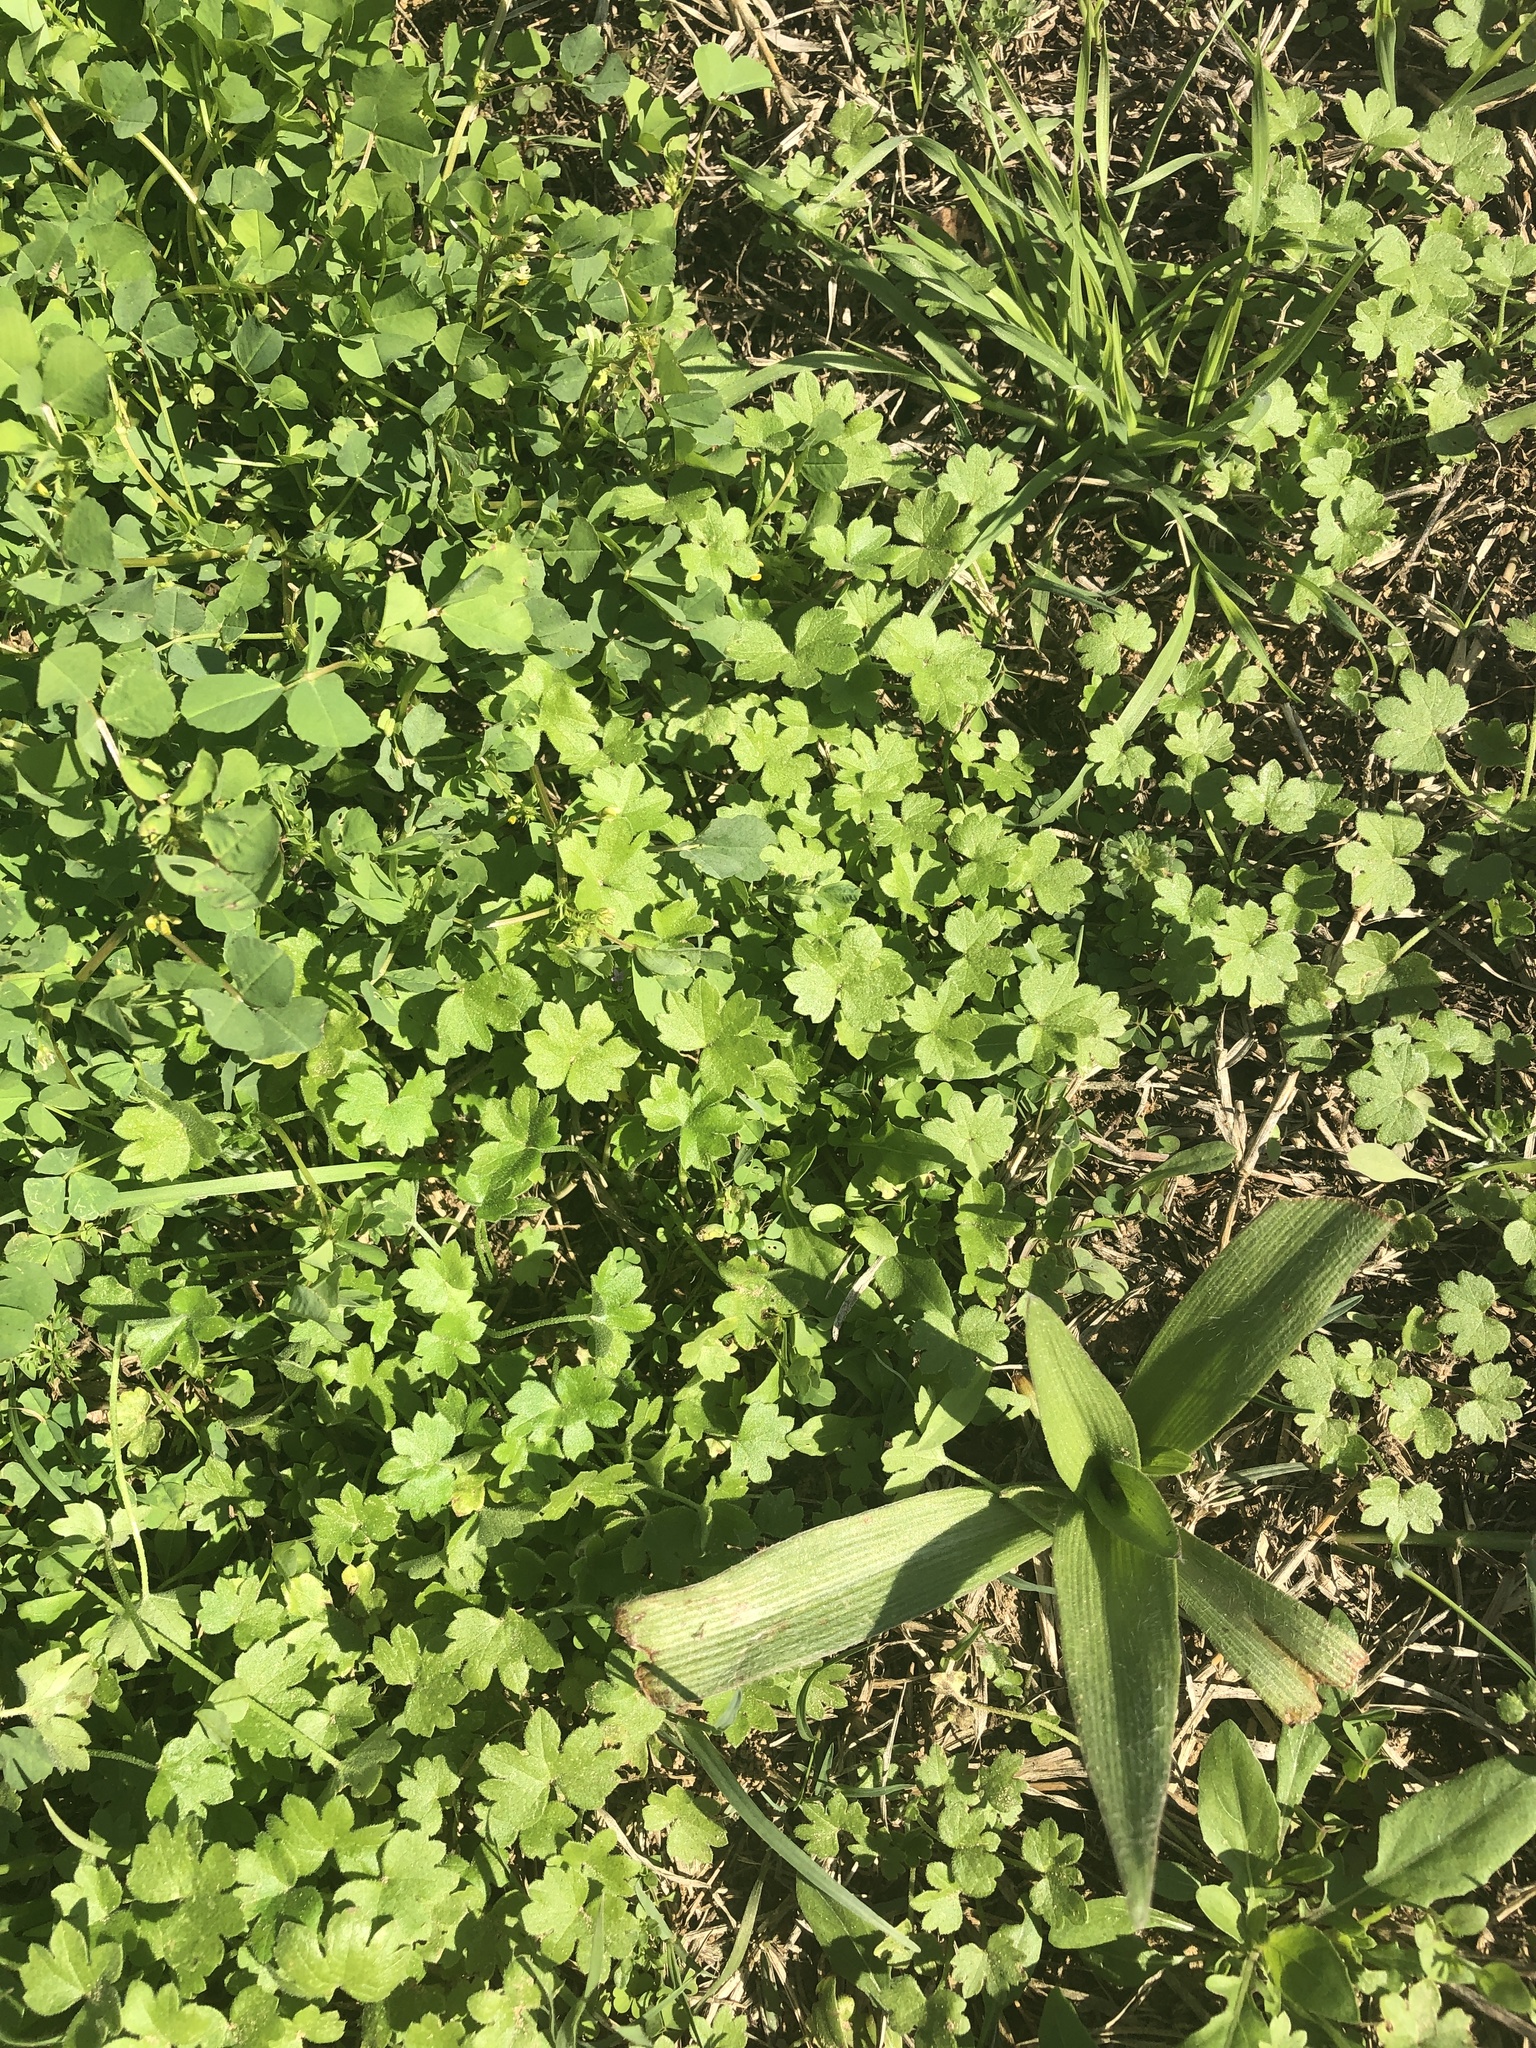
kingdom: Plantae
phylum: Tracheophyta
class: Magnoliopsida
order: Apiales
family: Apiaceae
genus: Bowlesia
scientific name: Bowlesia incana
